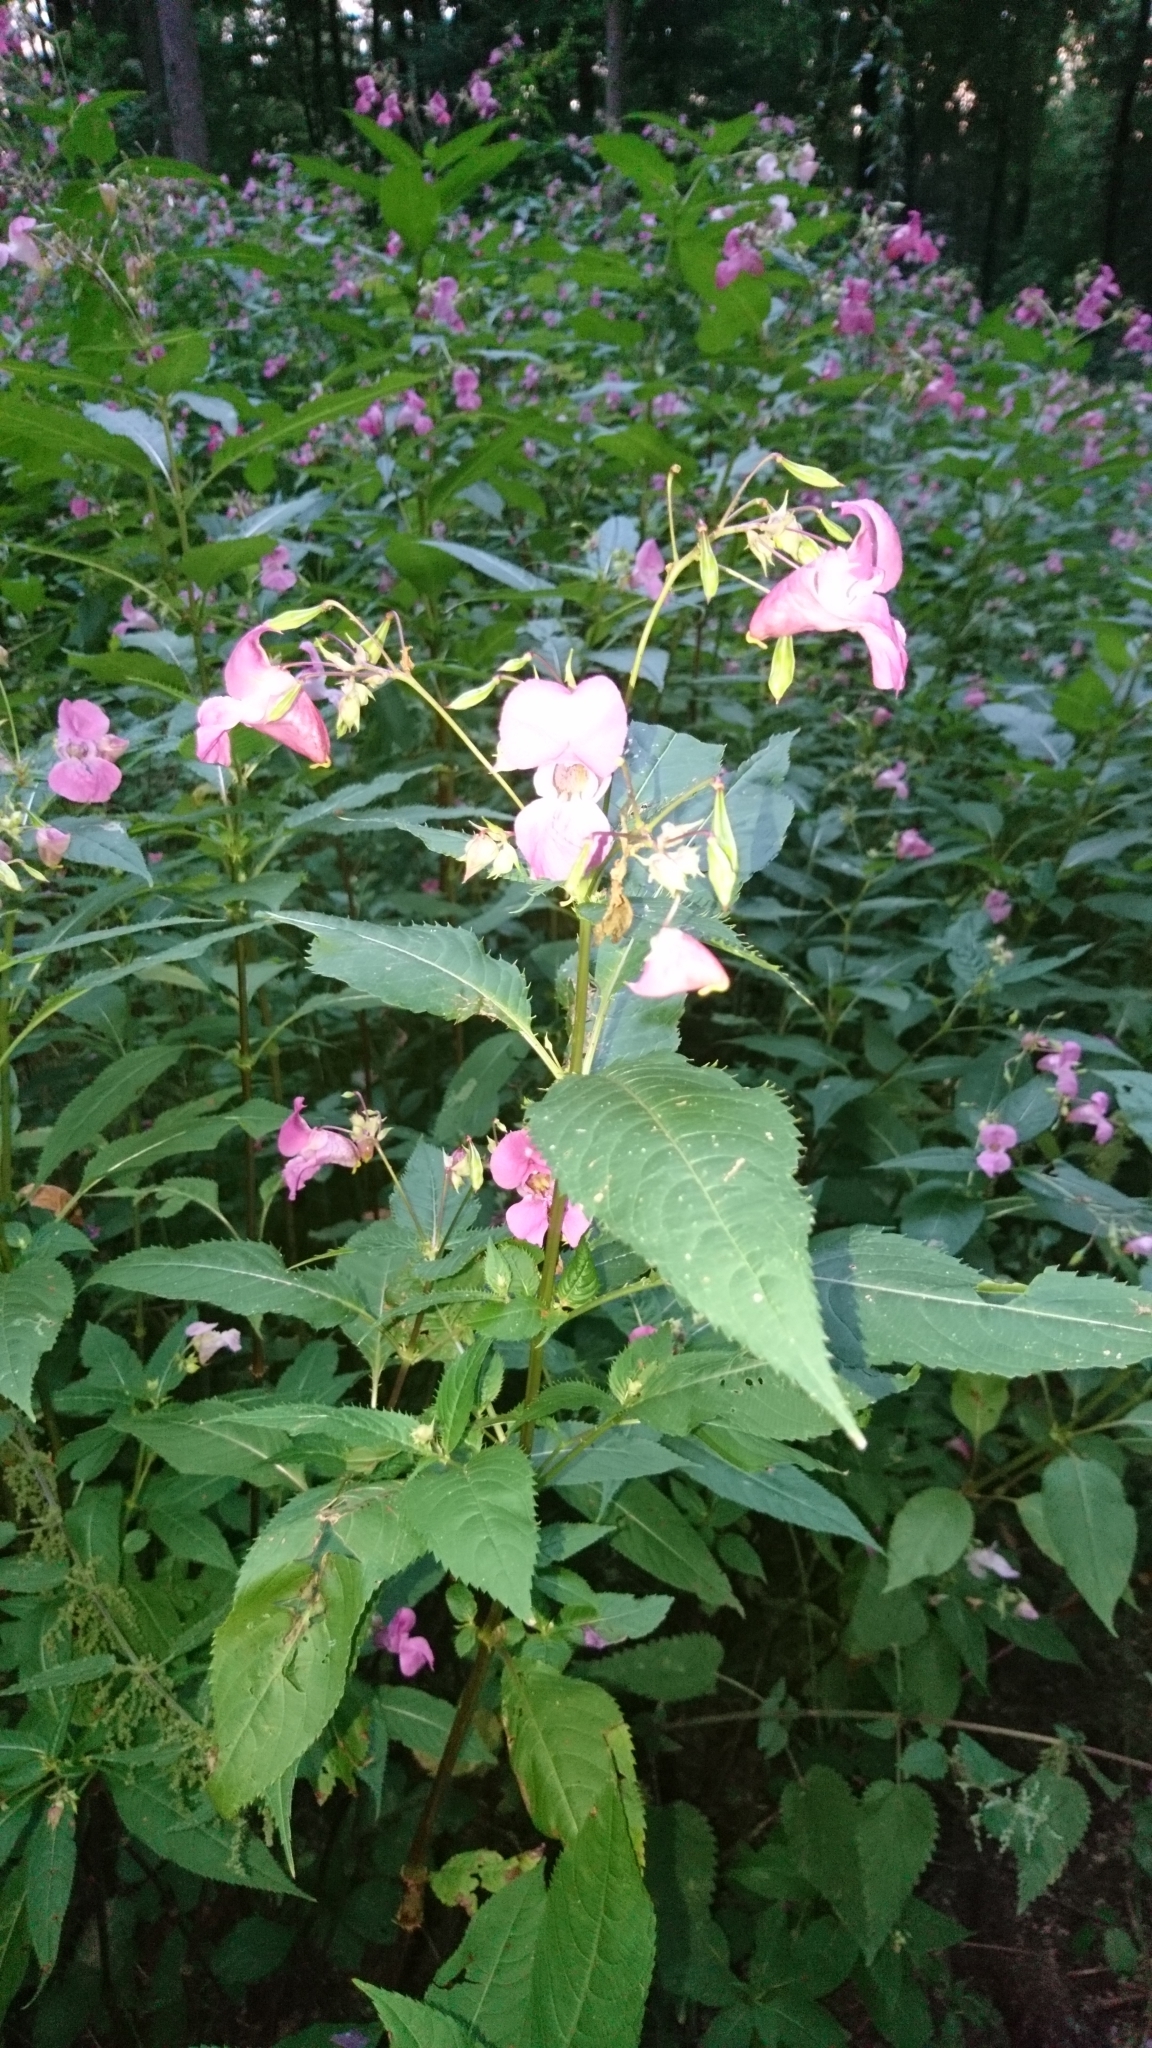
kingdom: Plantae
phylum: Tracheophyta
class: Magnoliopsida
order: Ericales
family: Balsaminaceae
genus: Impatiens
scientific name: Impatiens glandulifera
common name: Himalayan balsam
